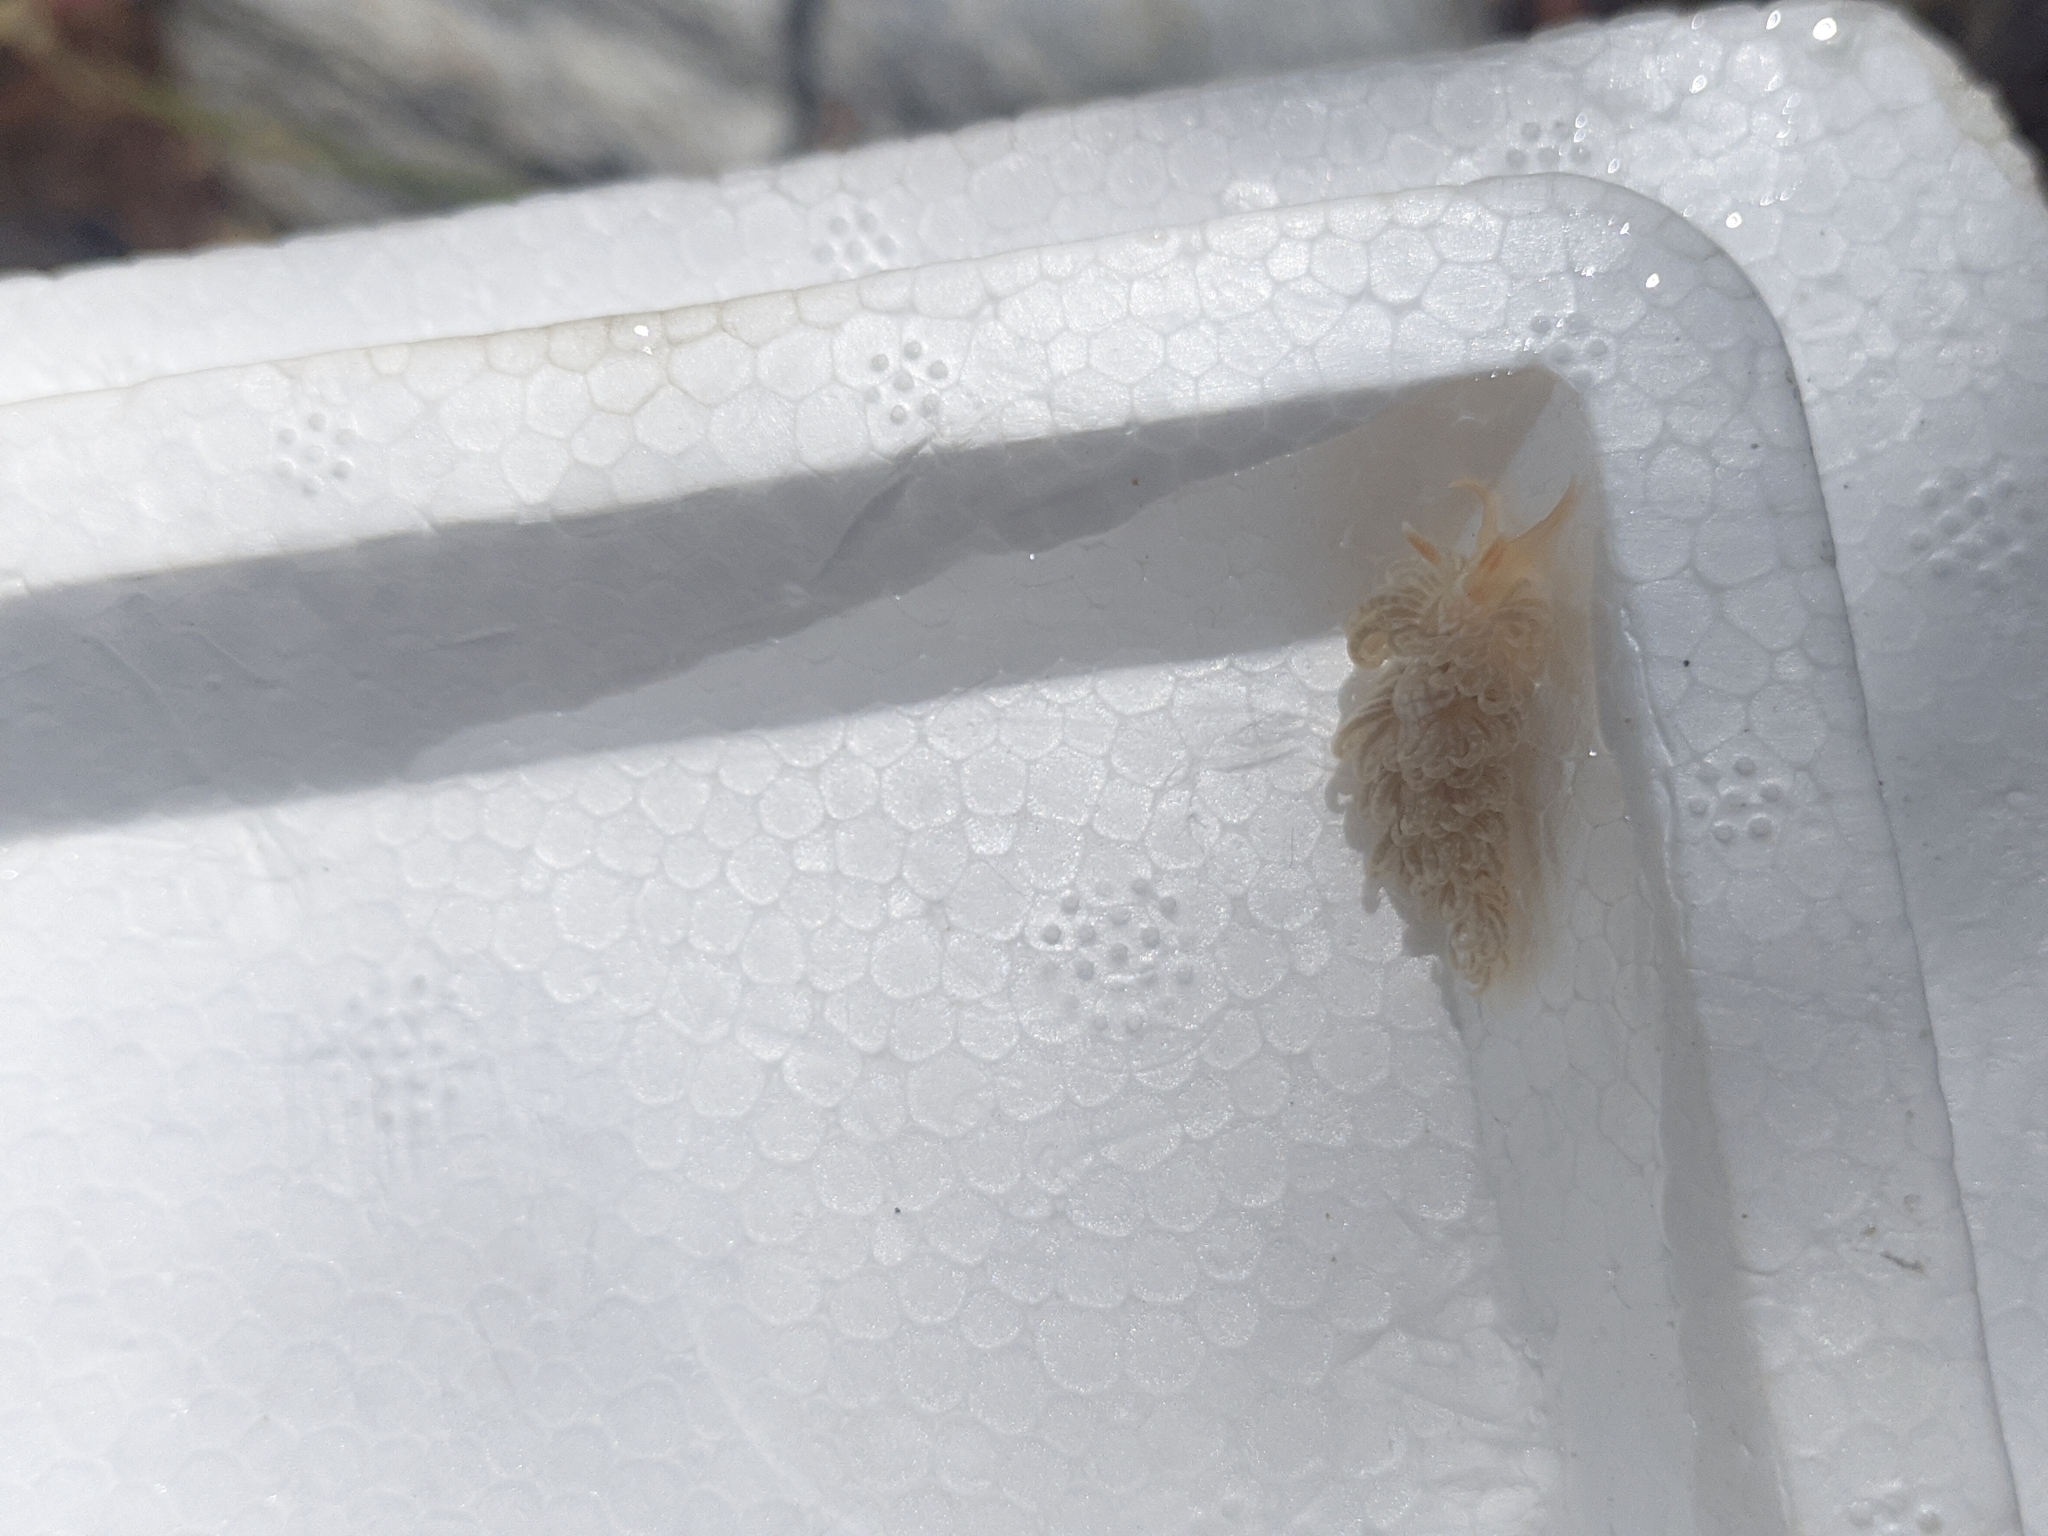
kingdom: Animalia
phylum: Mollusca
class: Gastropoda
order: Nudibranchia
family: Aeolidiidae
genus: Spurilla
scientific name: Spurilla braziliana
